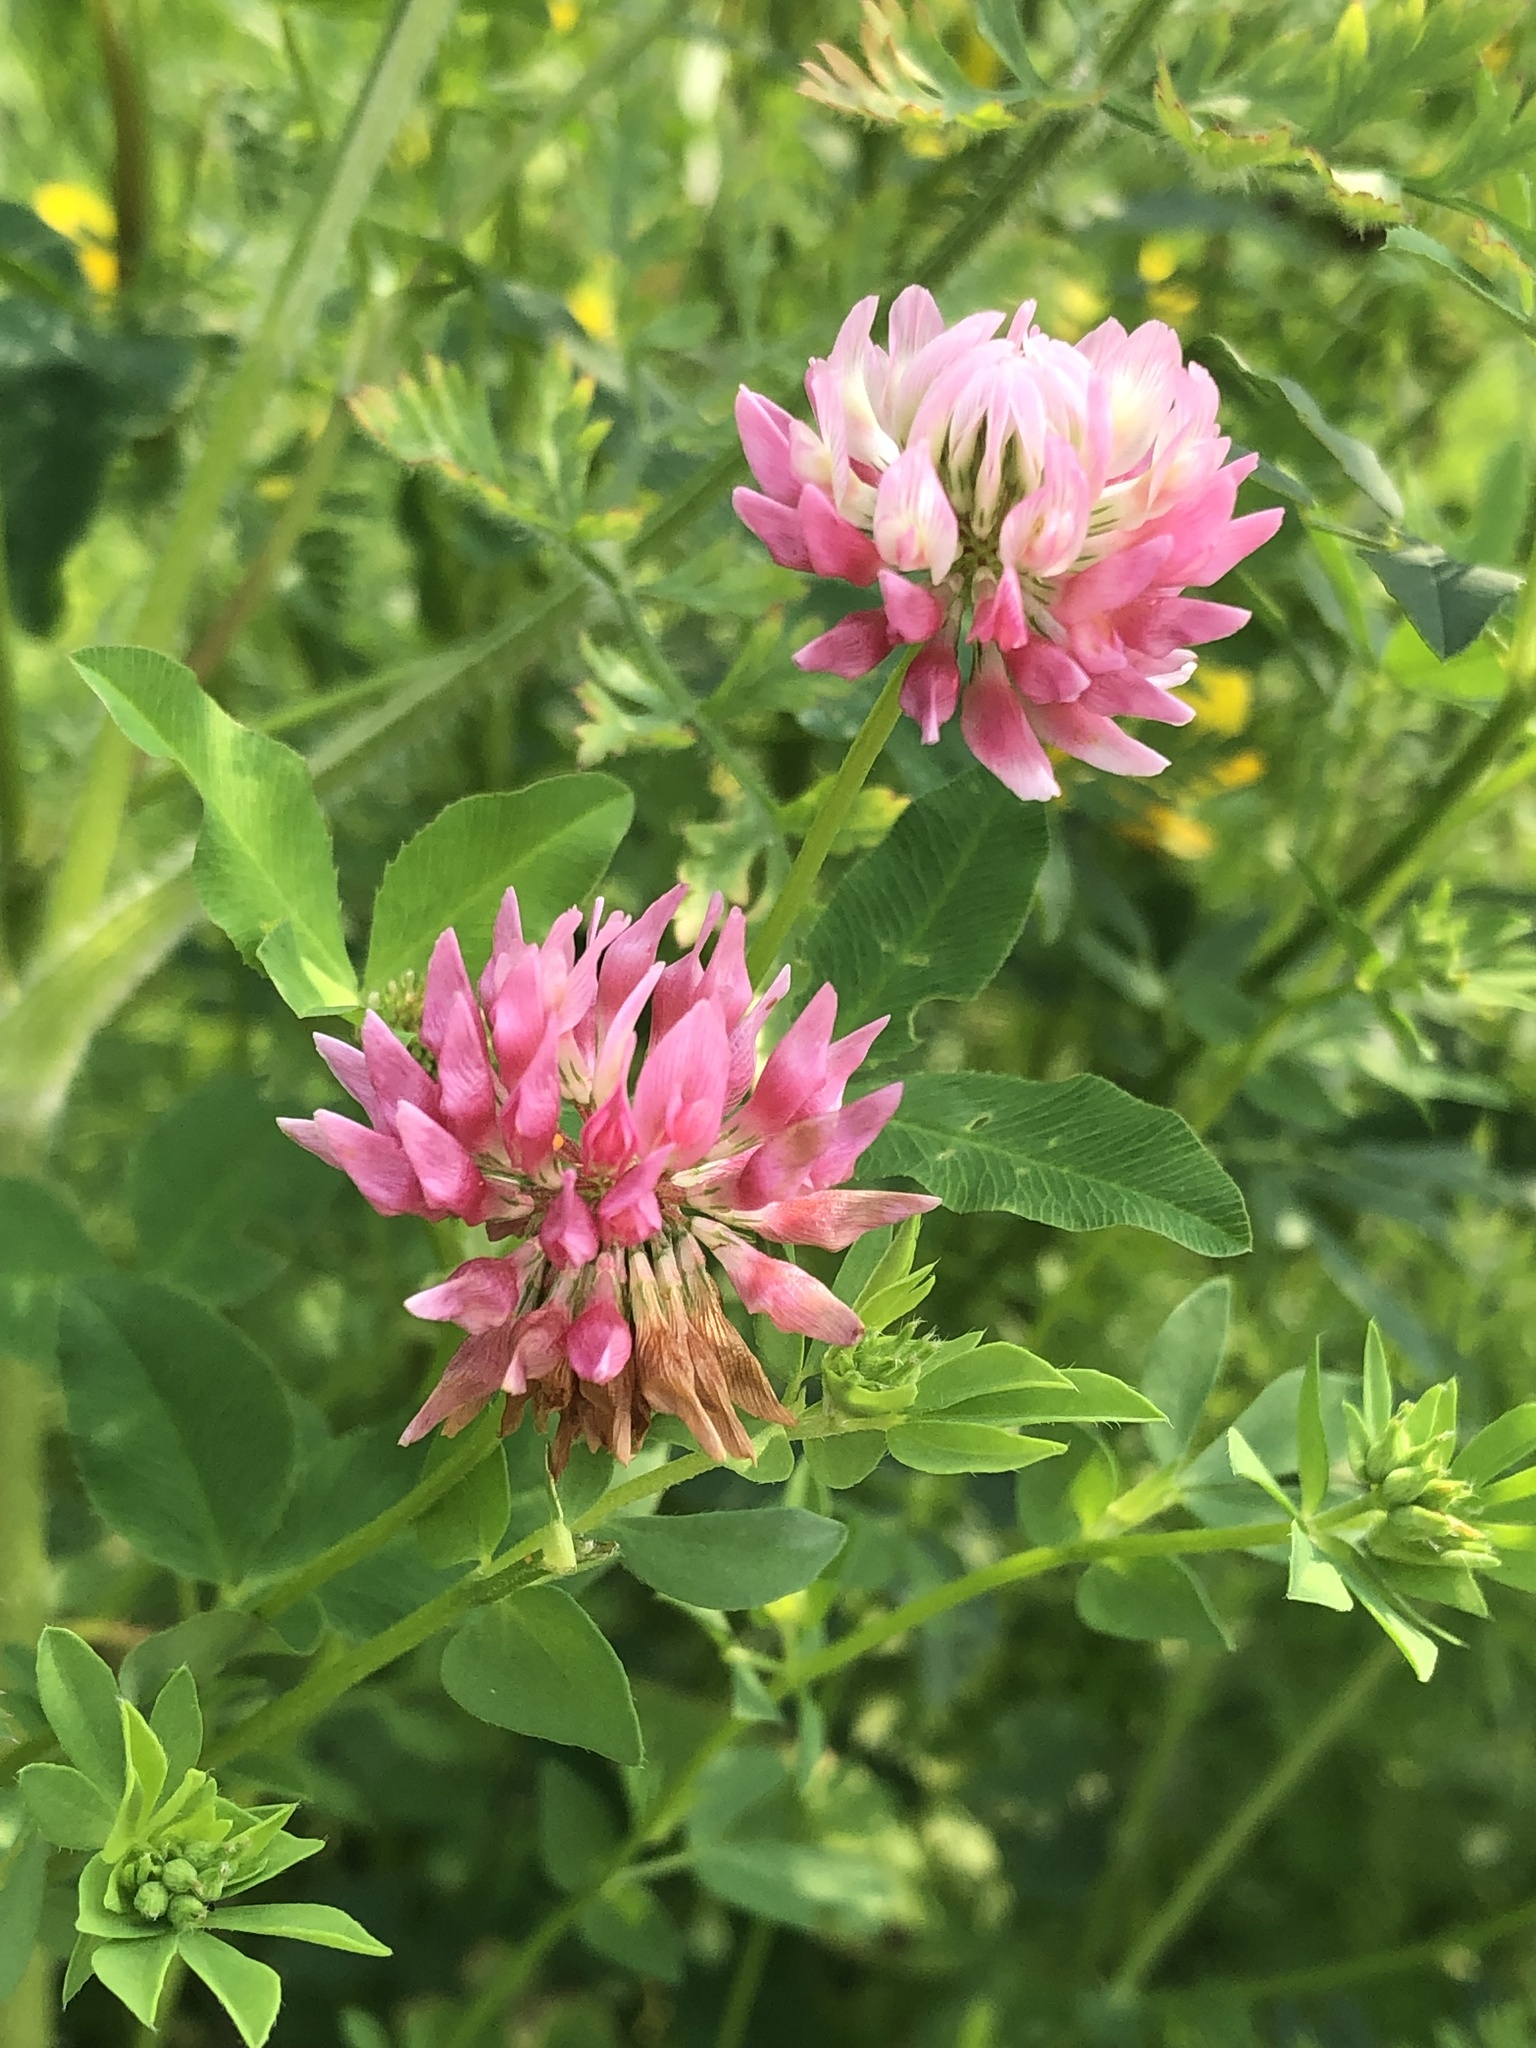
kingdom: Plantae
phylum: Tracheophyta
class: Magnoliopsida
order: Fabales
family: Fabaceae
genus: Trifolium
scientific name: Trifolium hybridum
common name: Alsike clover
